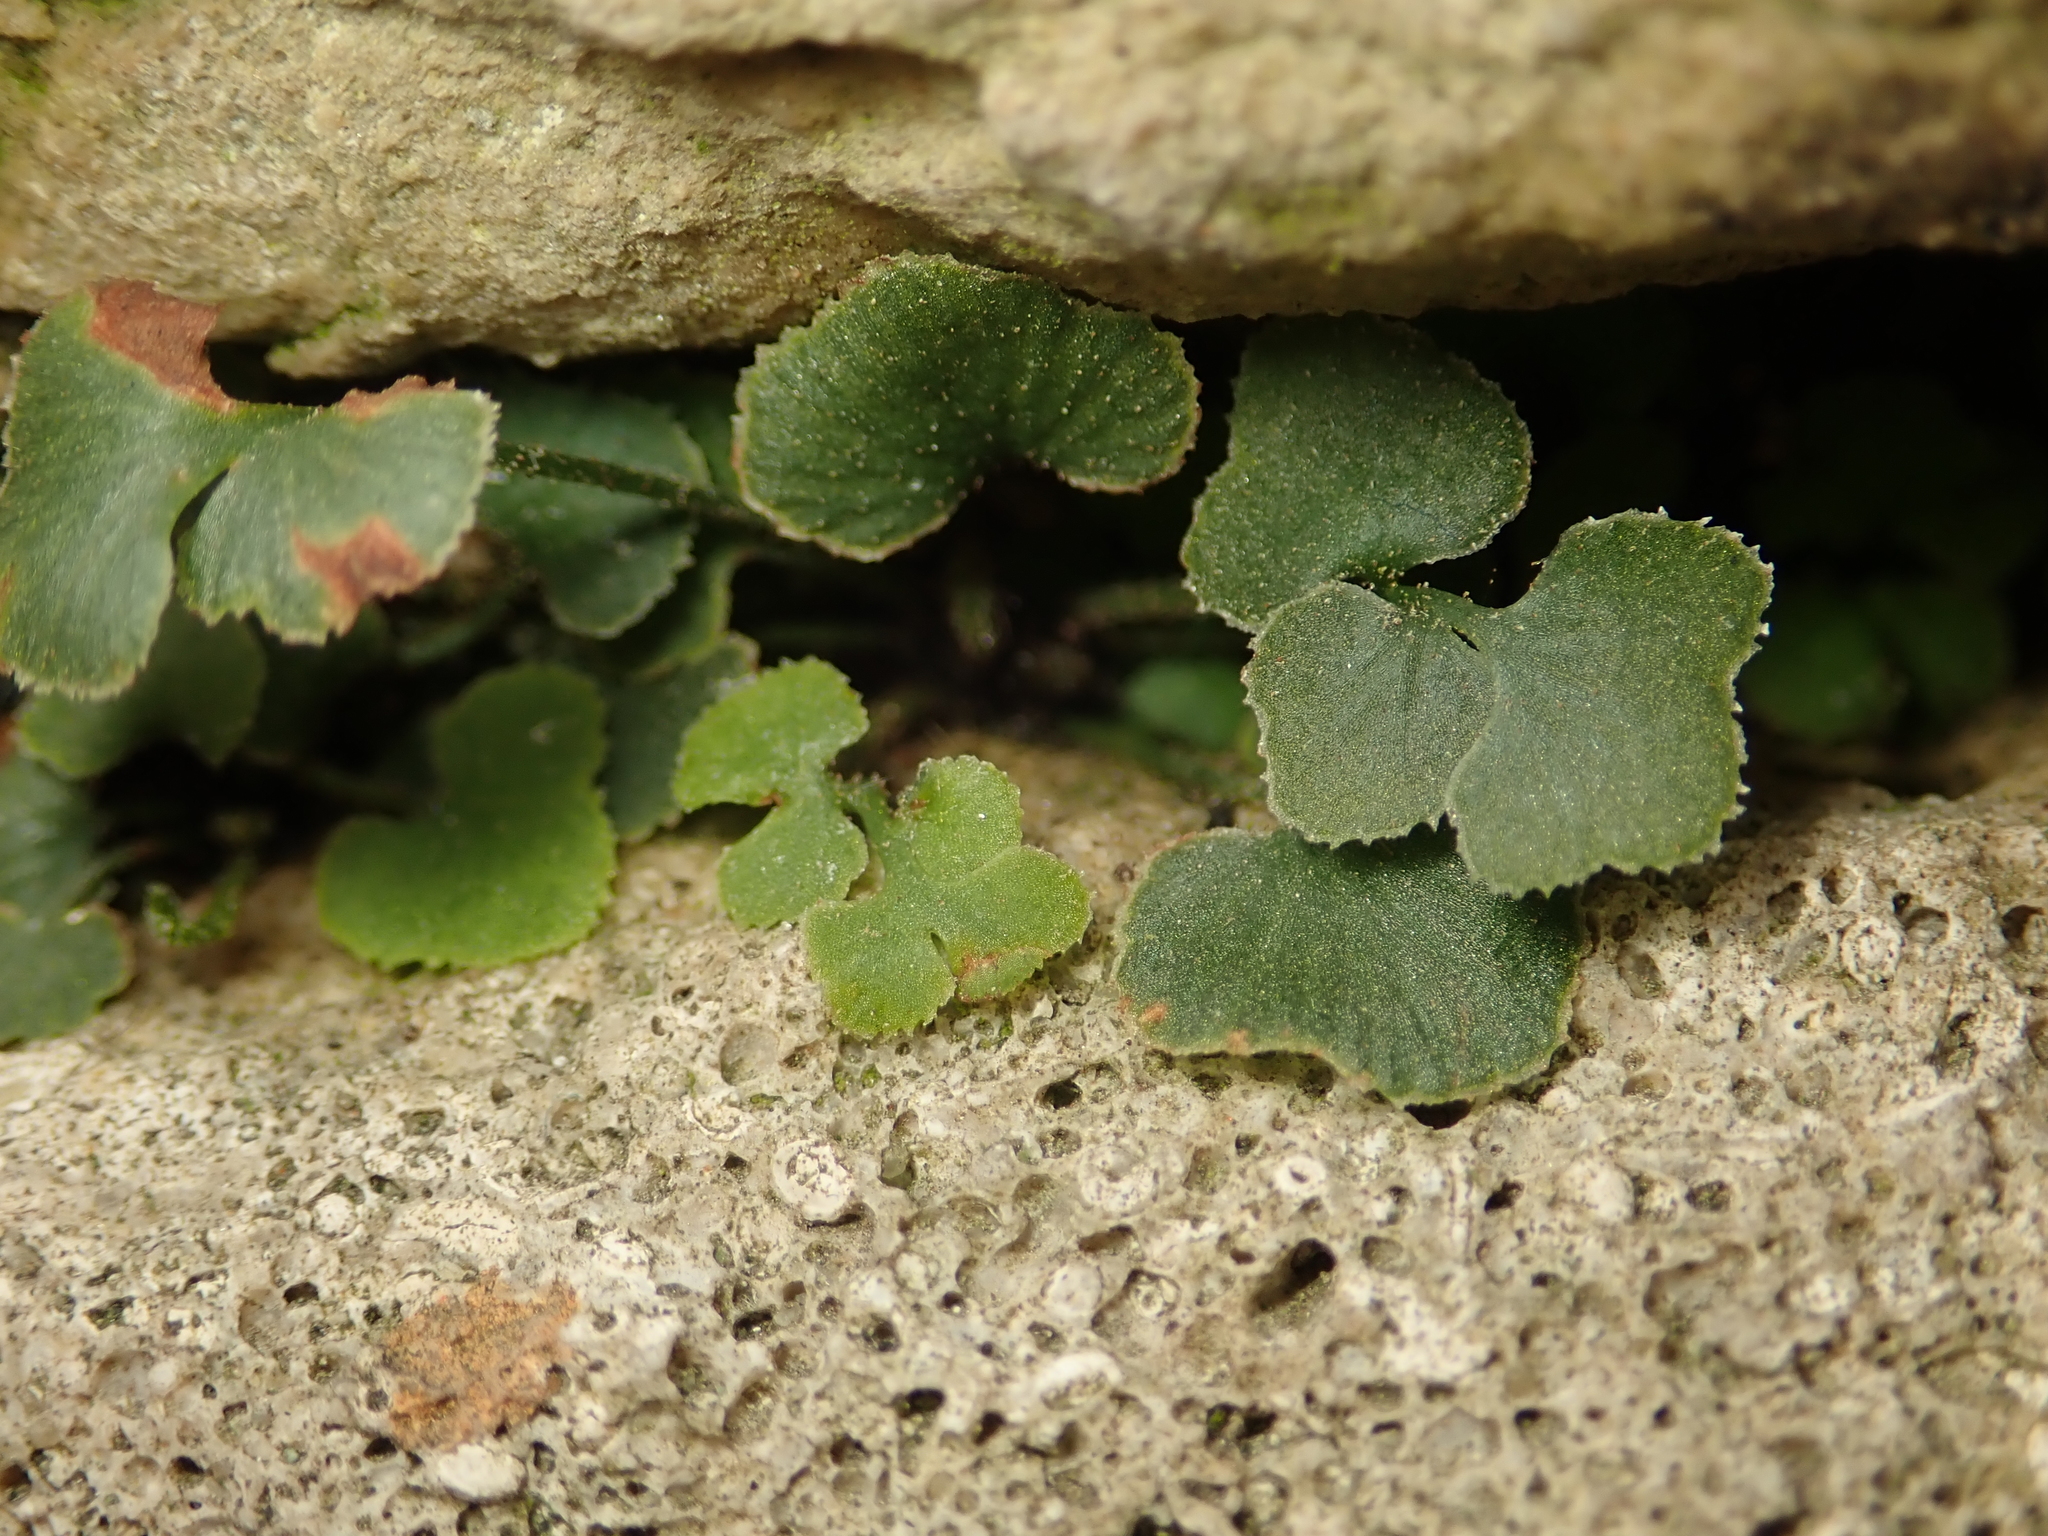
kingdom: Plantae
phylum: Tracheophyta
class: Polypodiopsida
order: Polypodiales
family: Aspleniaceae
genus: Asplenium
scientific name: Asplenium ruta-muraria
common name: Wall-rue
